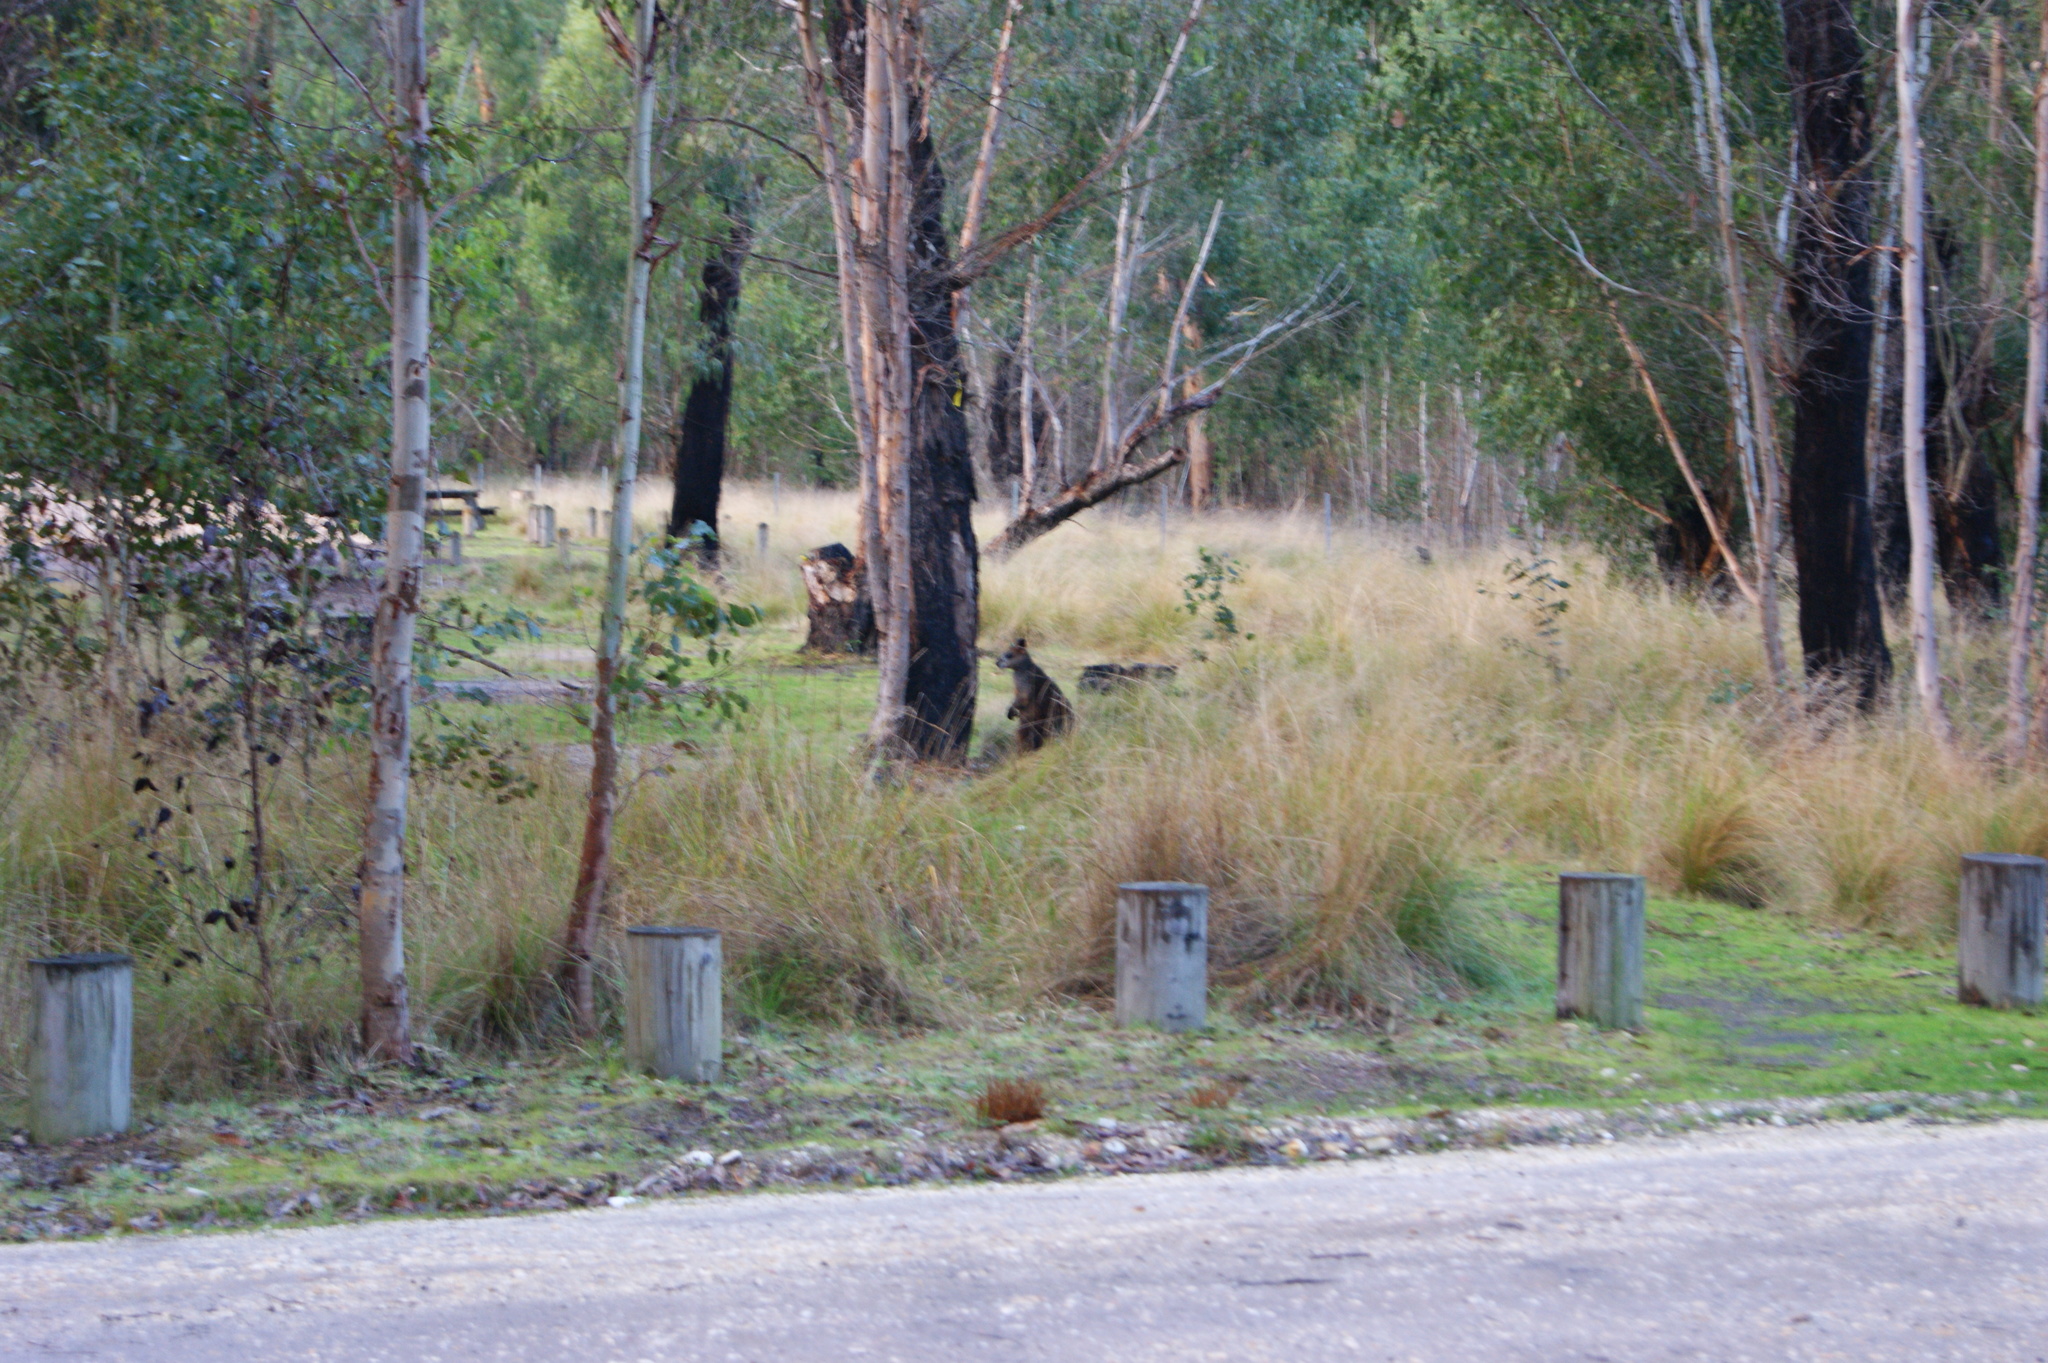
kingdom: Animalia
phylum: Chordata
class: Mammalia
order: Diprotodontia
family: Macropodidae
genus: Wallabia
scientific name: Wallabia bicolor
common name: Swamp wallaby
